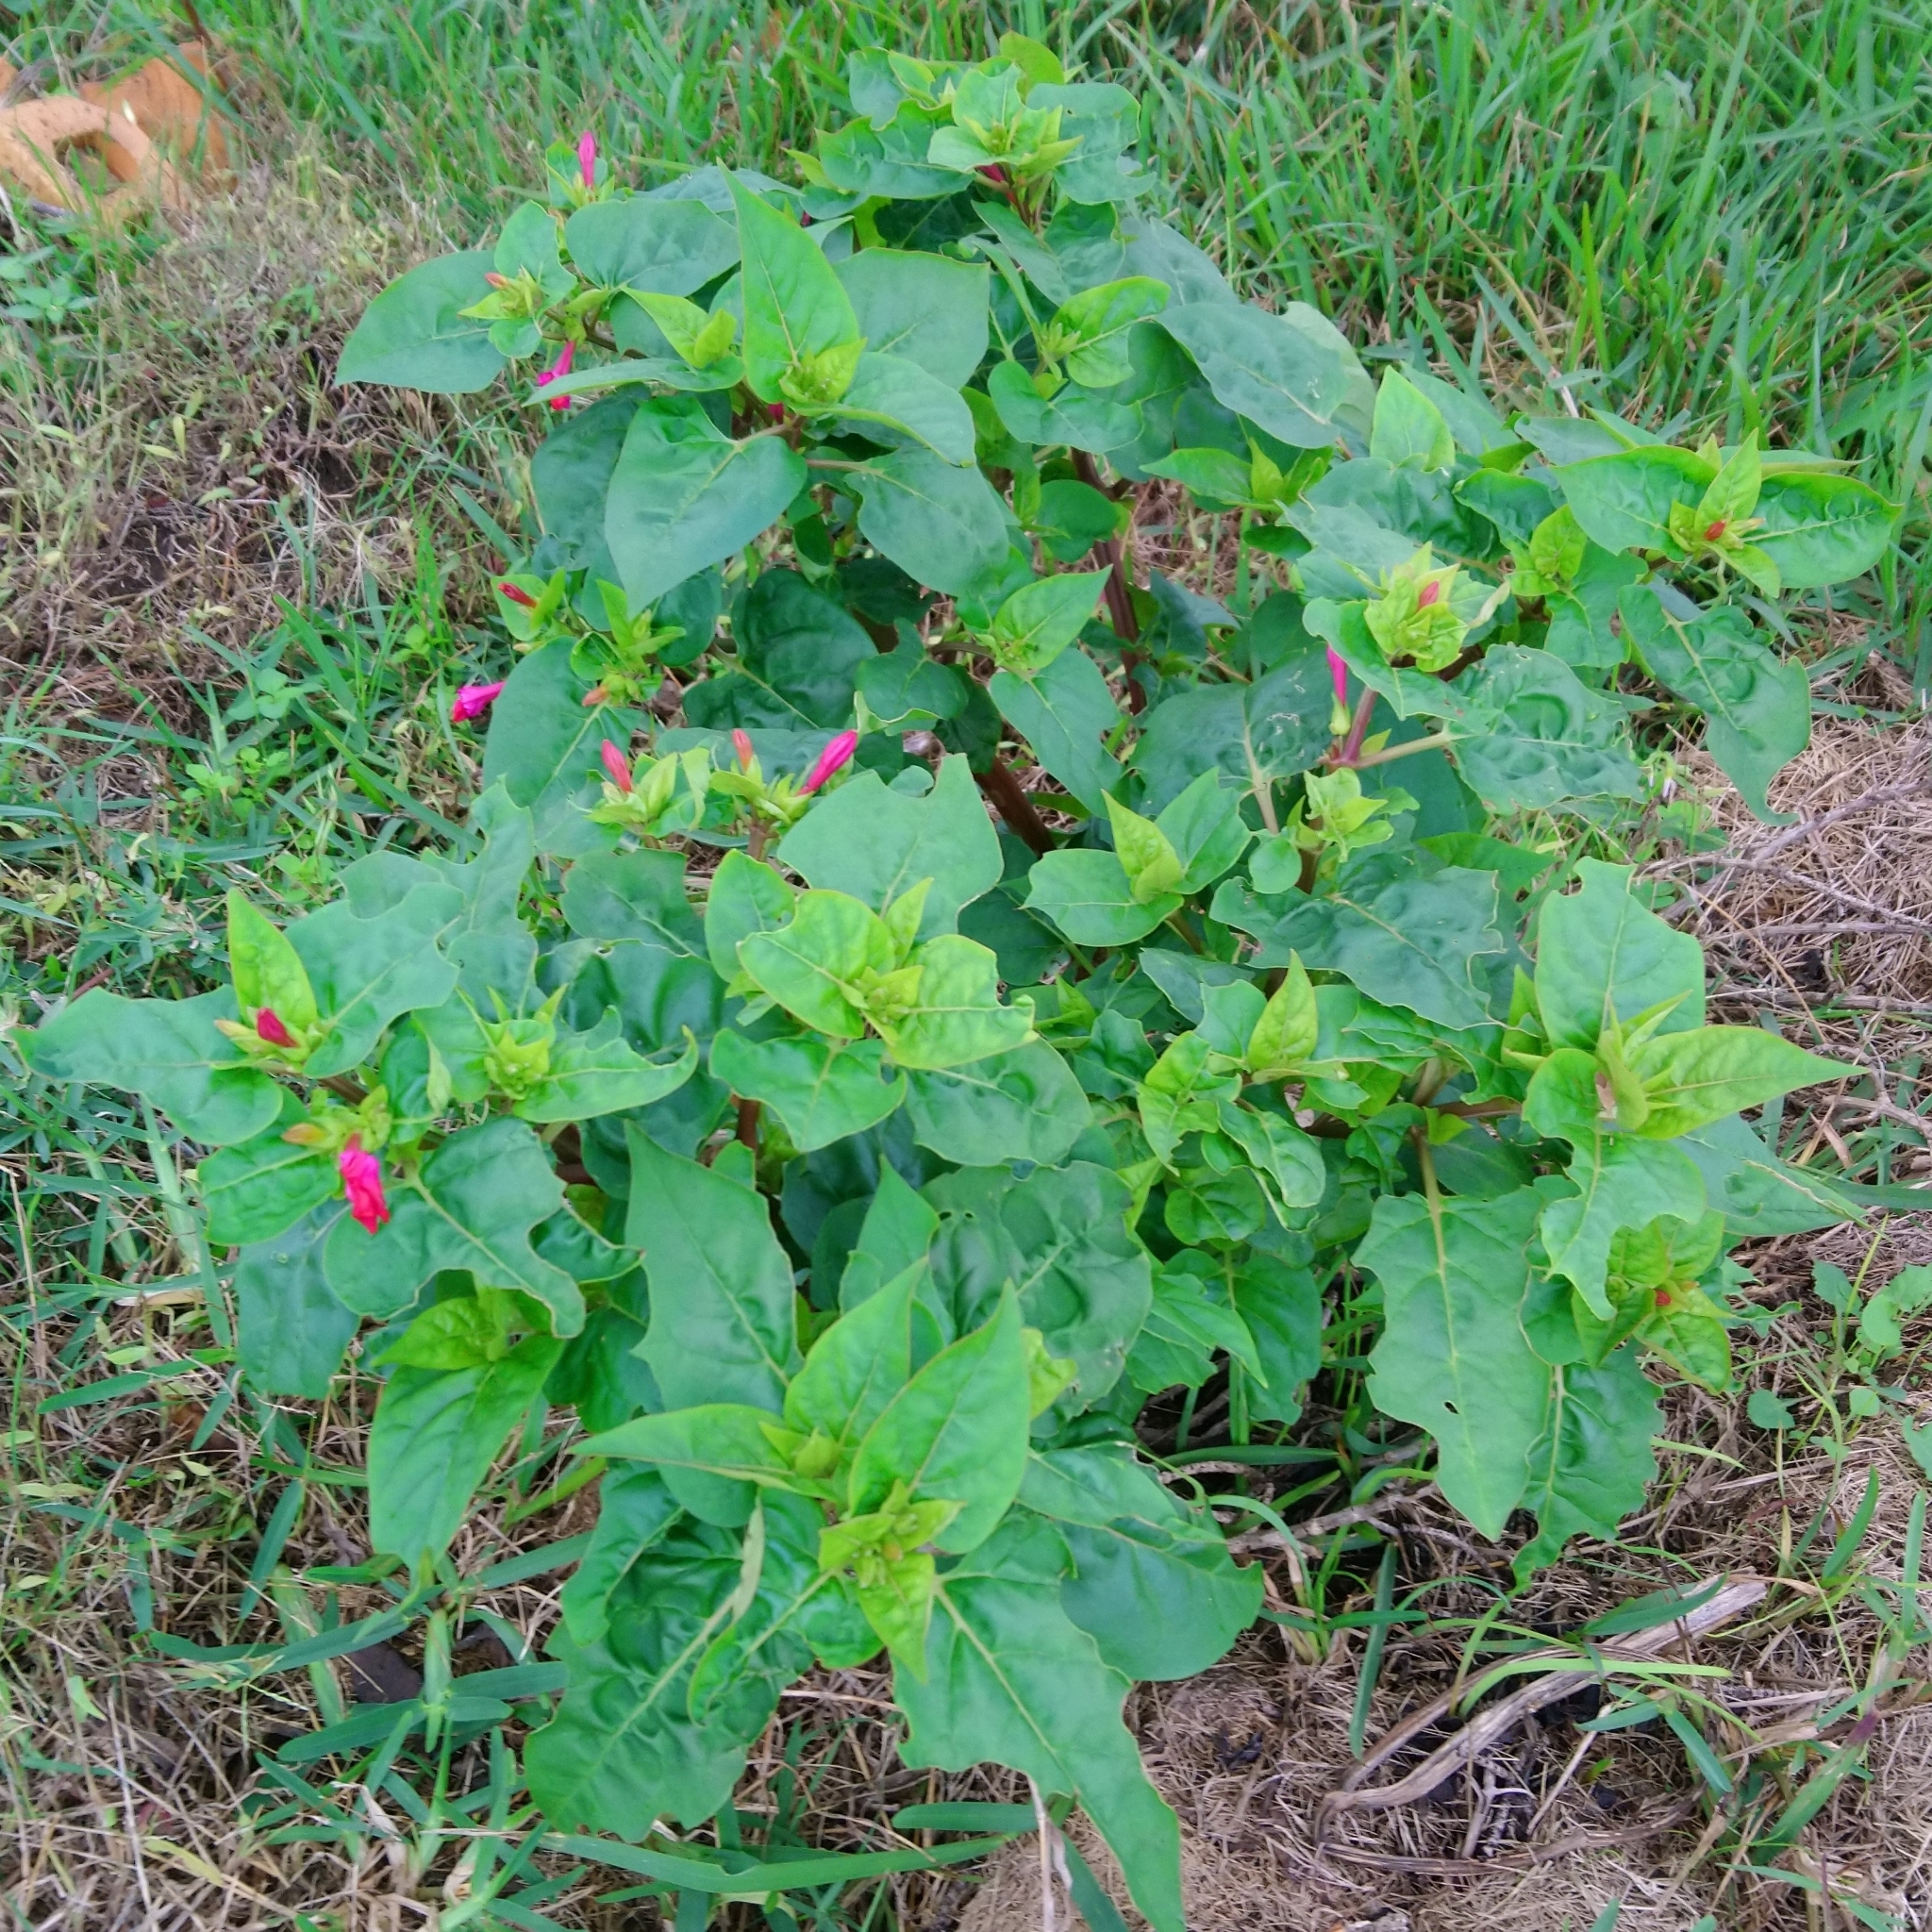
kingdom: Plantae
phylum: Tracheophyta
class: Magnoliopsida
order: Caryophyllales
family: Nyctaginaceae
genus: Mirabilis
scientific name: Mirabilis jalapa
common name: Marvel-of-peru
